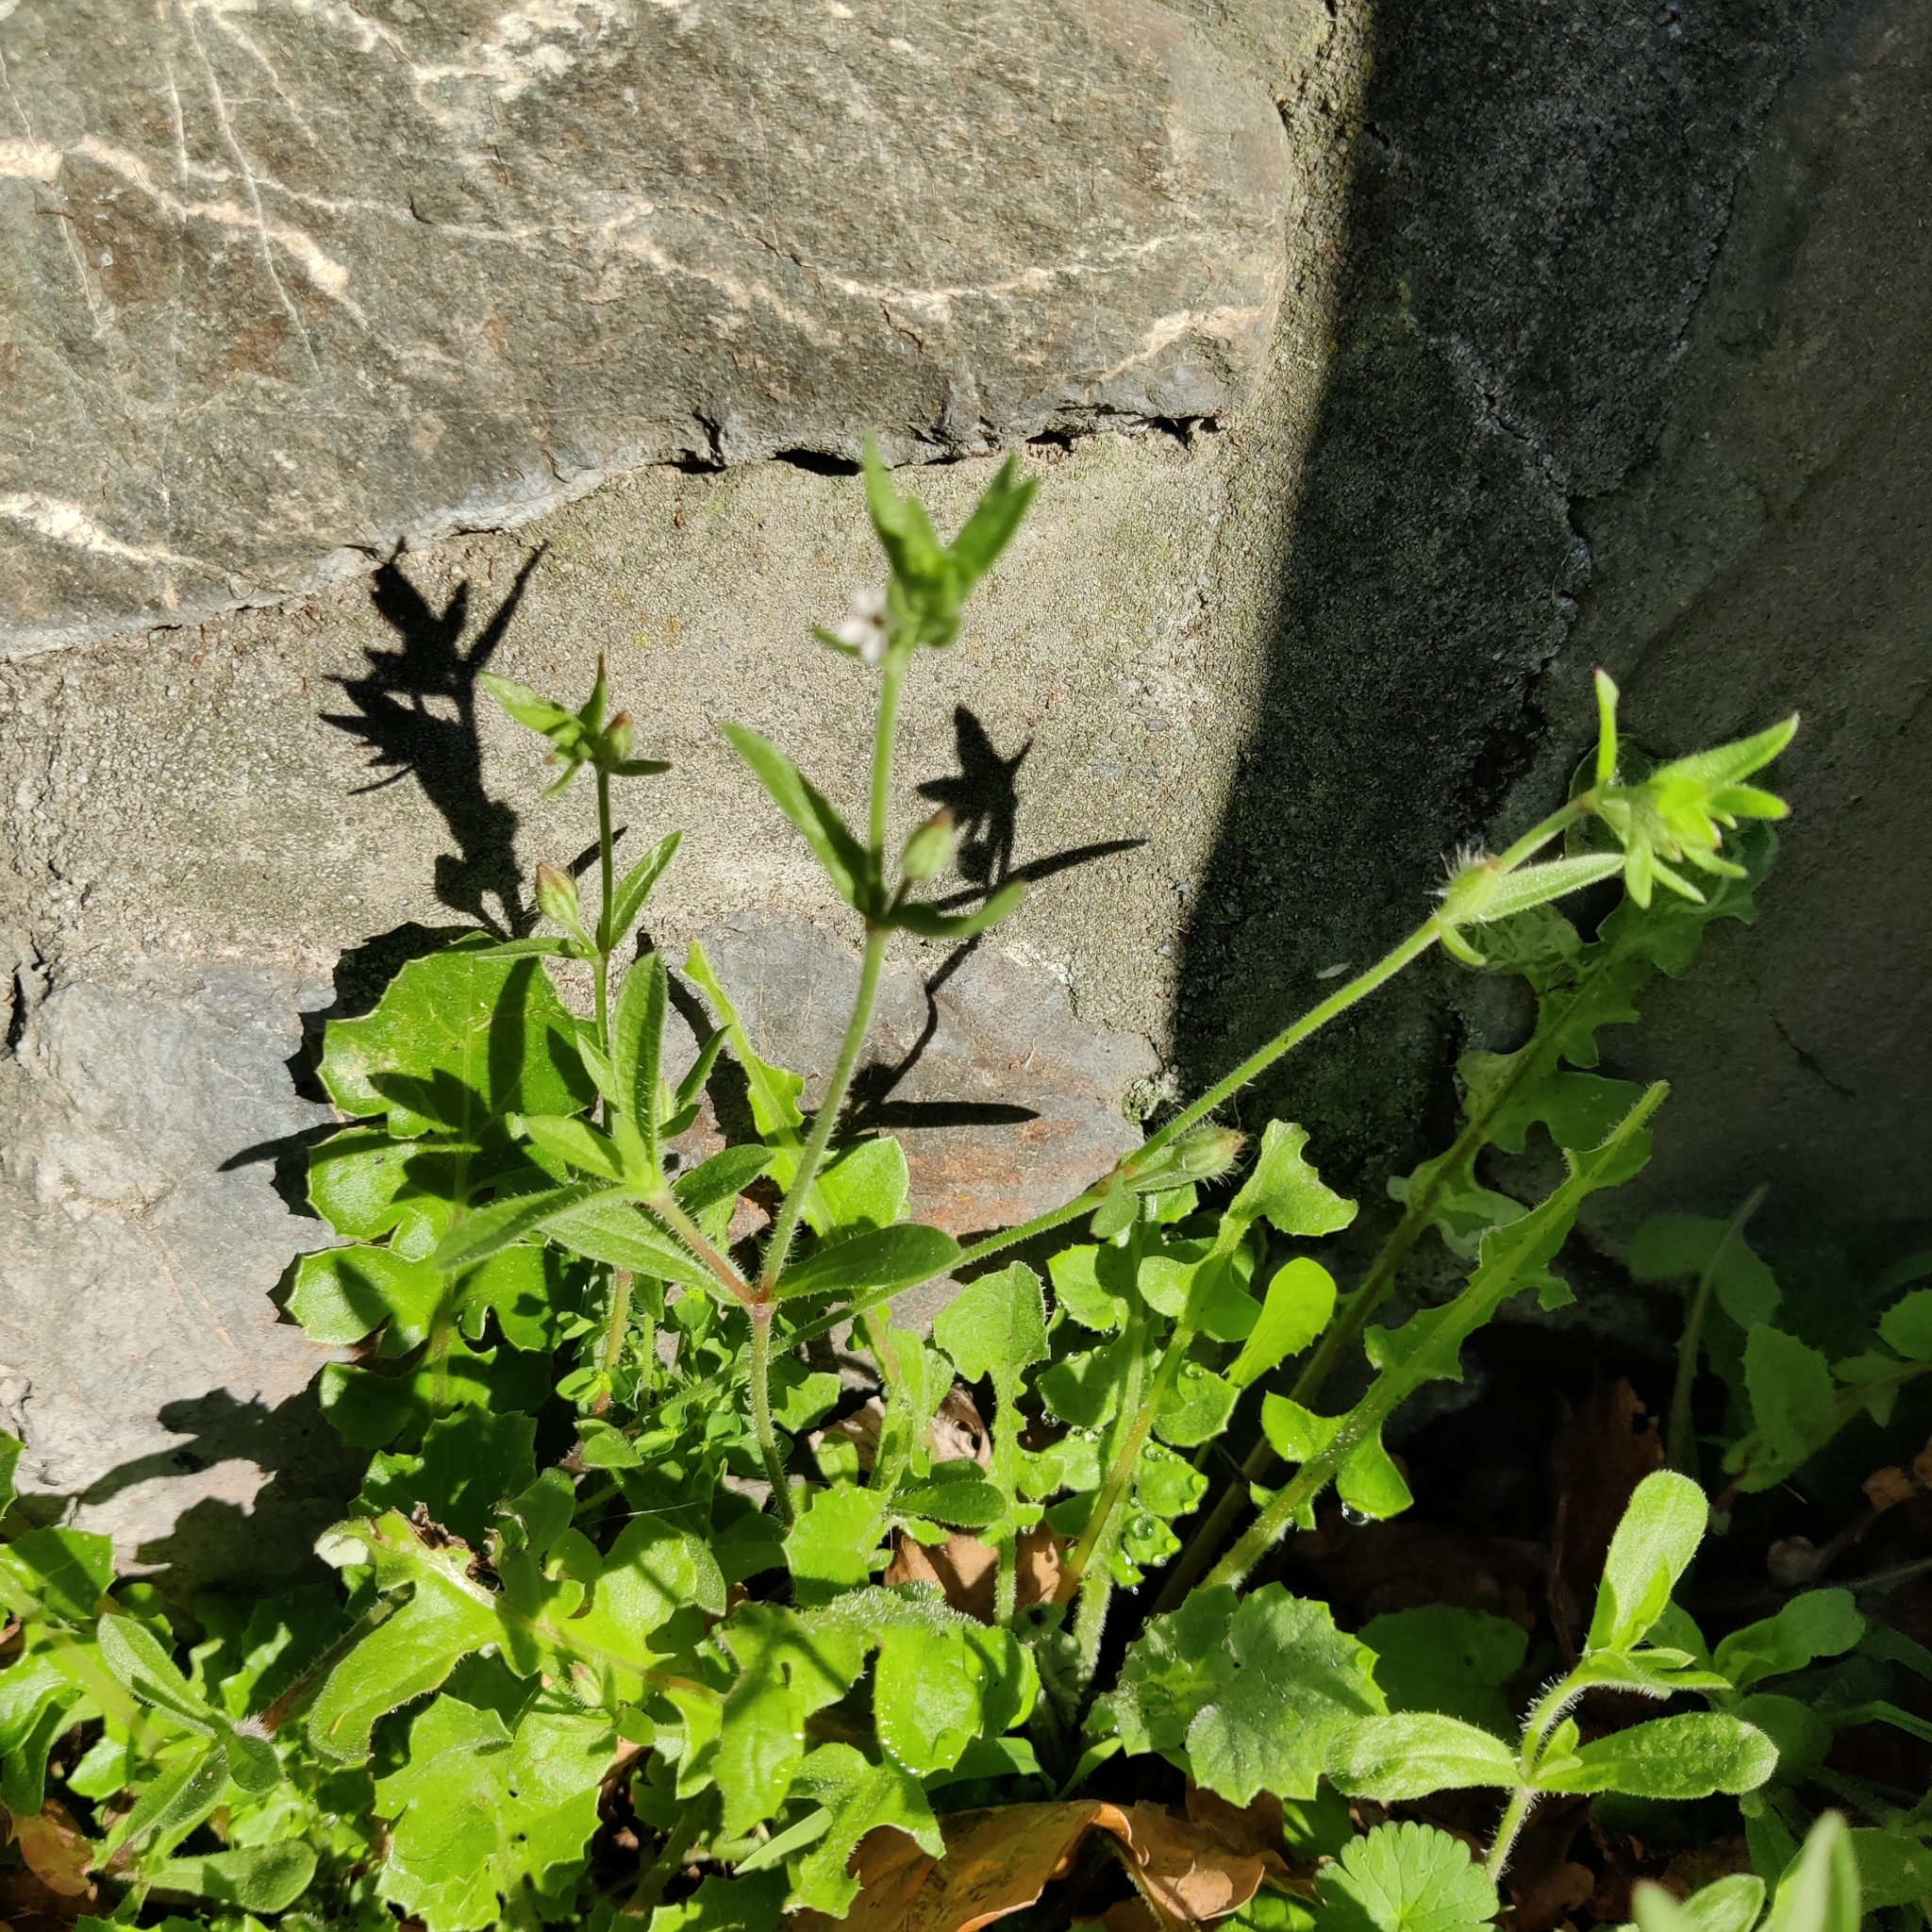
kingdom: Plantae
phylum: Tracheophyta
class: Magnoliopsida
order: Caryophyllales
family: Caryophyllaceae
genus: Silene
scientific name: Silene gallica
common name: Small-flowered catchfly
